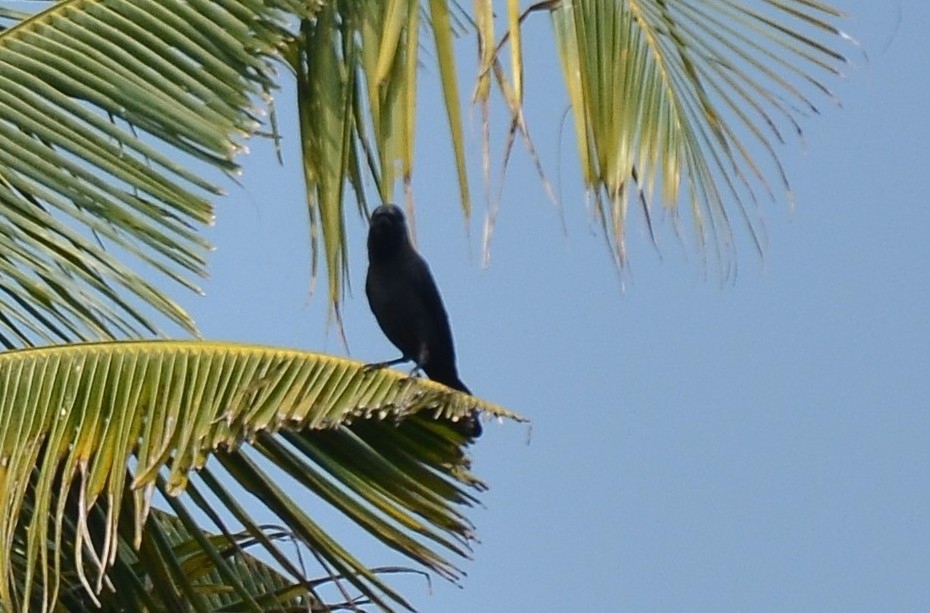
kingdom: Animalia
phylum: Chordata
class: Aves
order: Passeriformes
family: Corvidae
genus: Corvus
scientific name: Corvus splendens
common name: House crow
